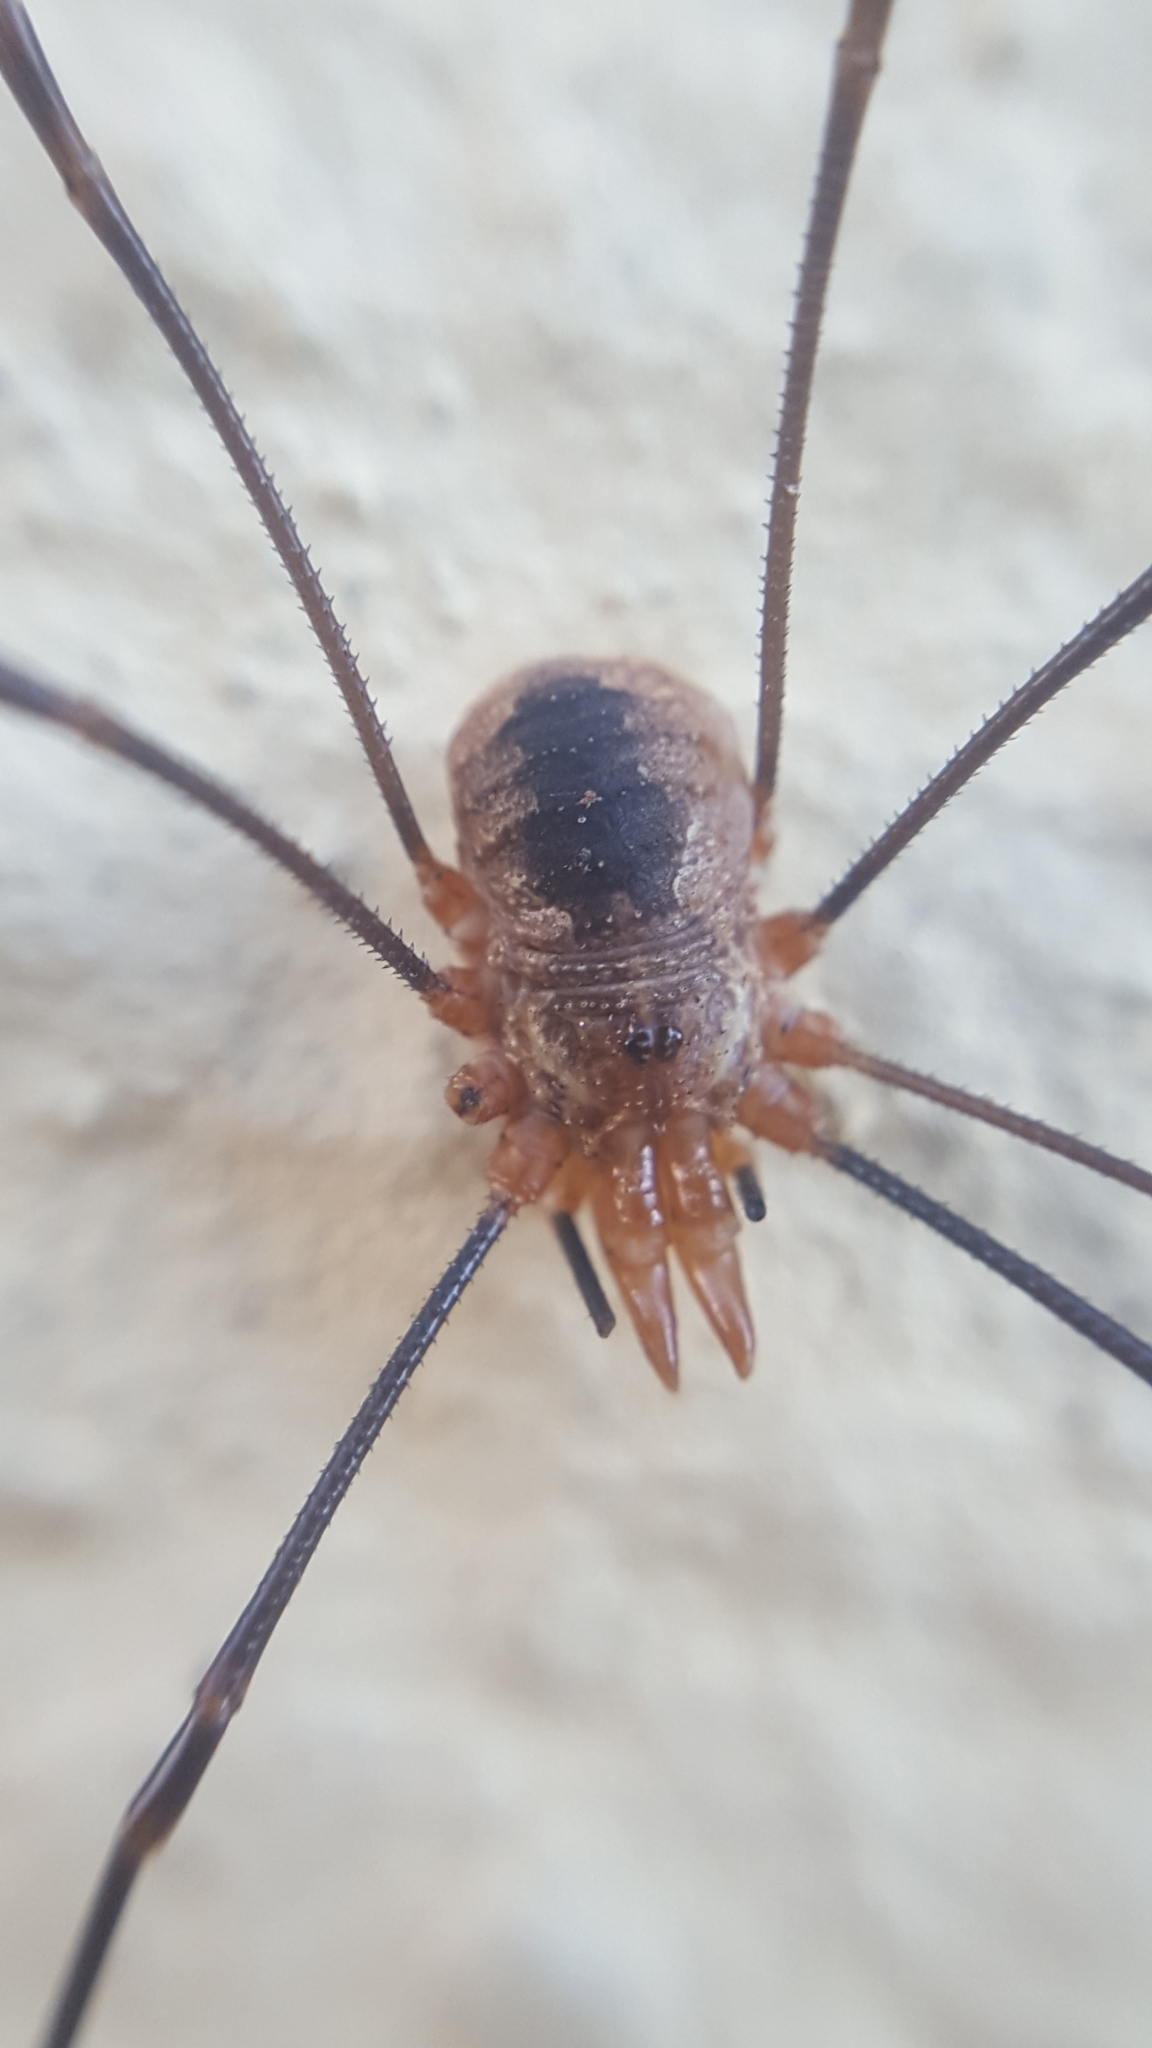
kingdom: Animalia
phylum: Arthropoda
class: Arachnida
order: Opiliones
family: Phalangiidae
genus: Phalangium
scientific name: Phalangium opilio
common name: Daddy longleg
